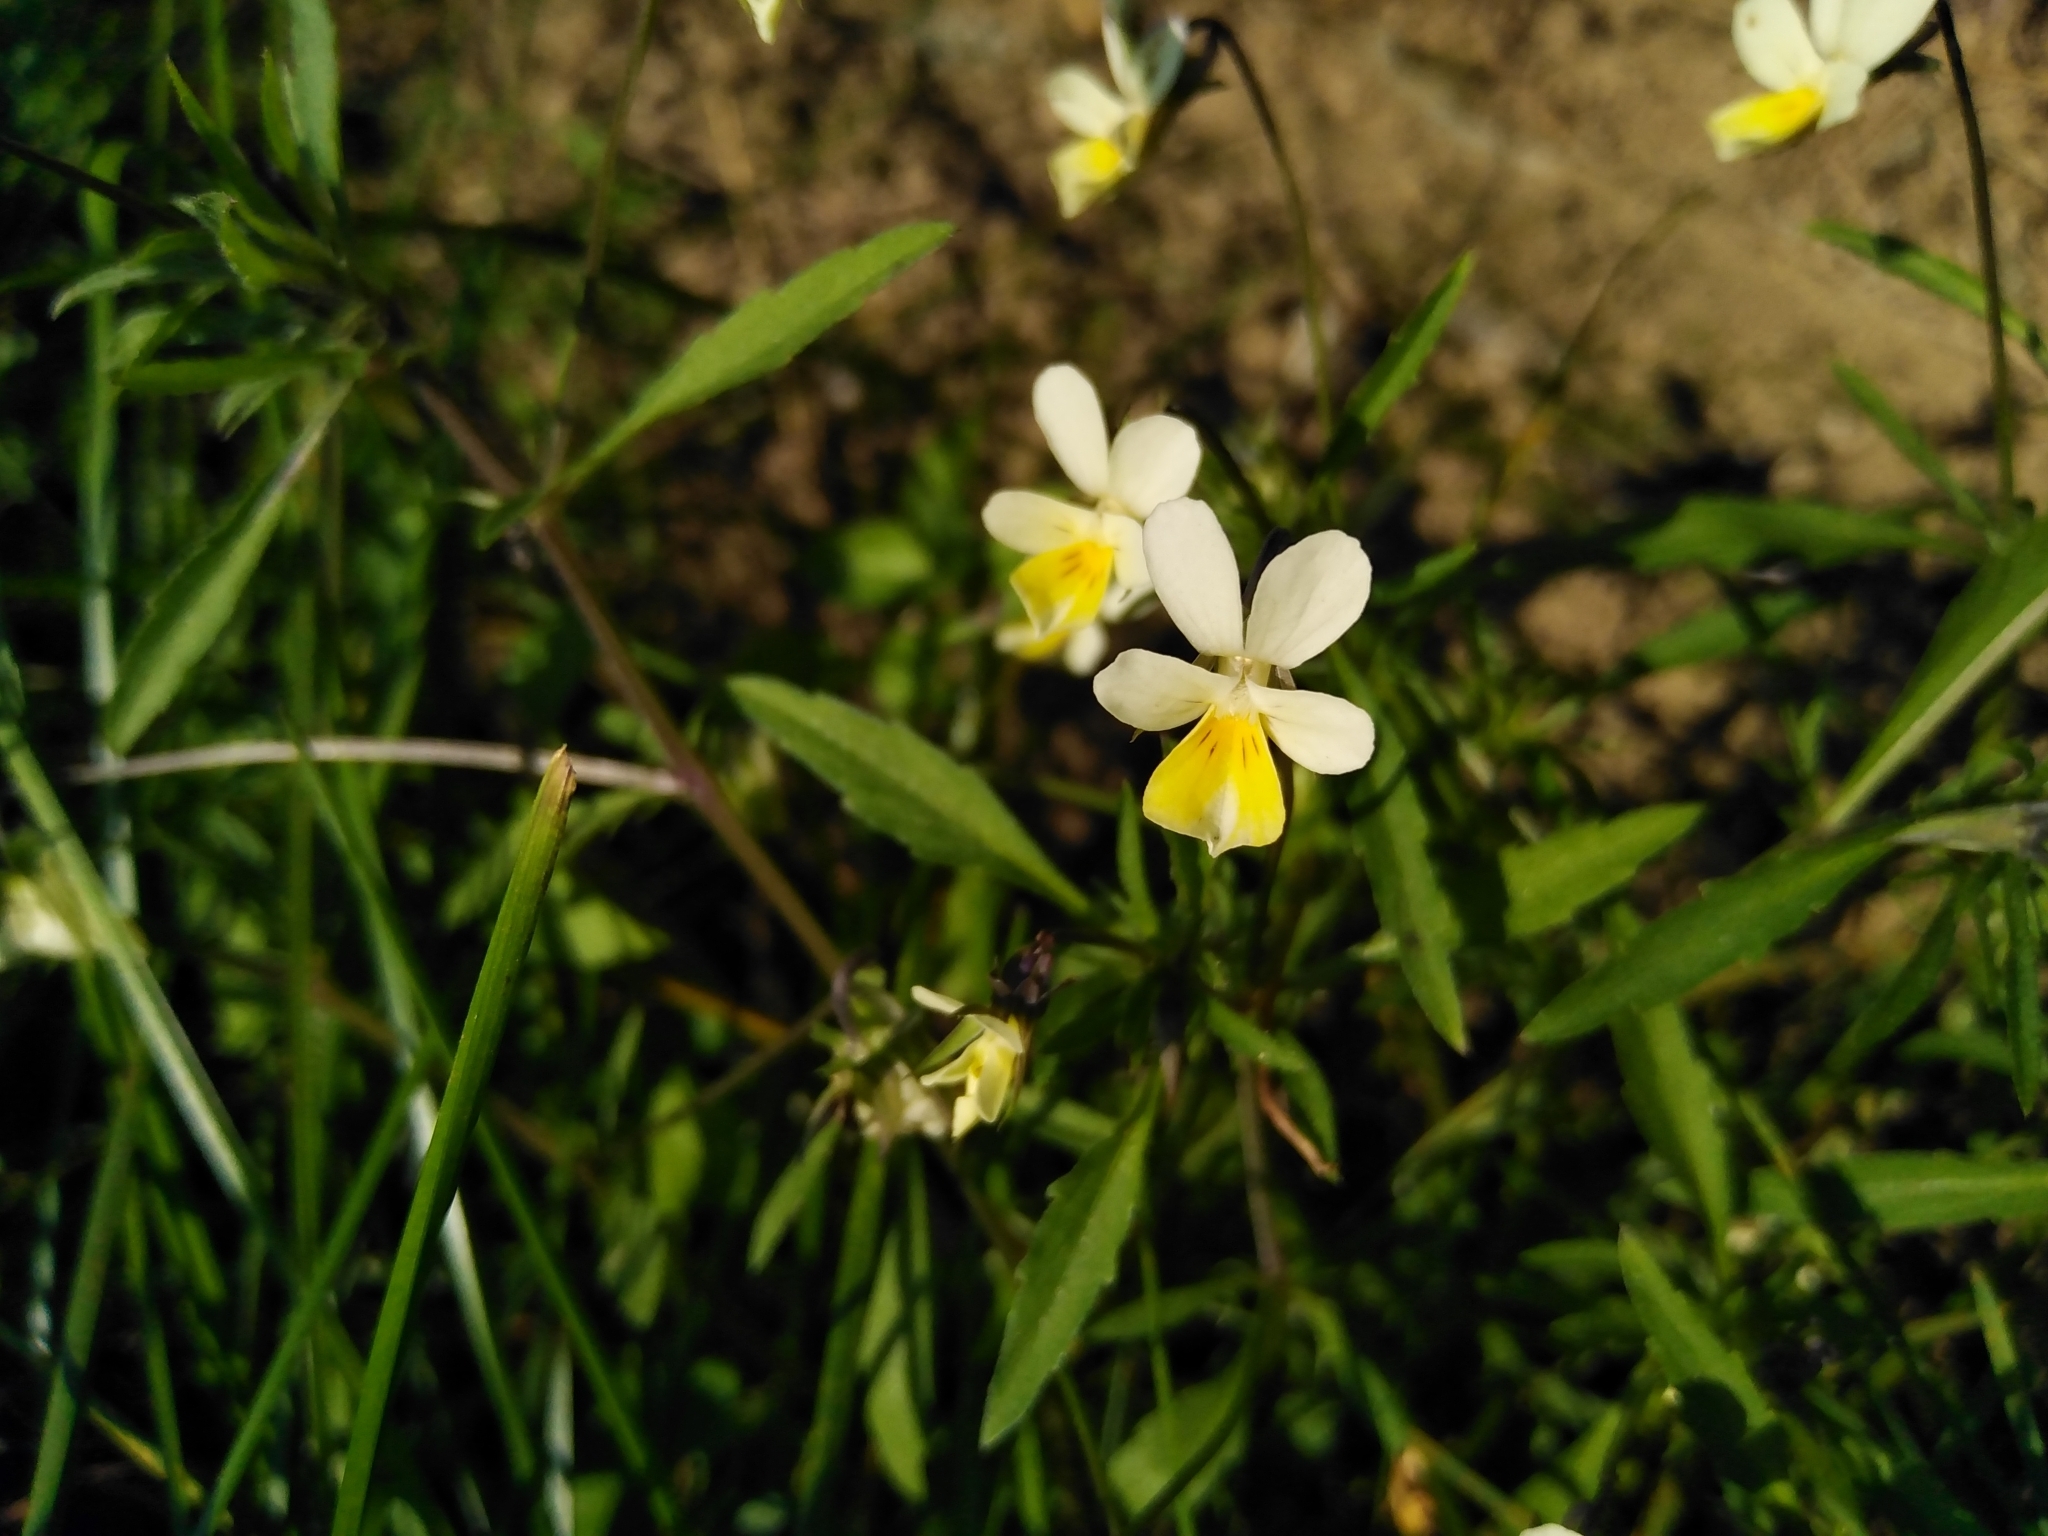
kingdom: Plantae
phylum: Tracheophyta
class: Magnoliopsida
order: Malpighiales
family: Violaceae
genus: Viola
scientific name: Viola arvensis
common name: Field pansy
